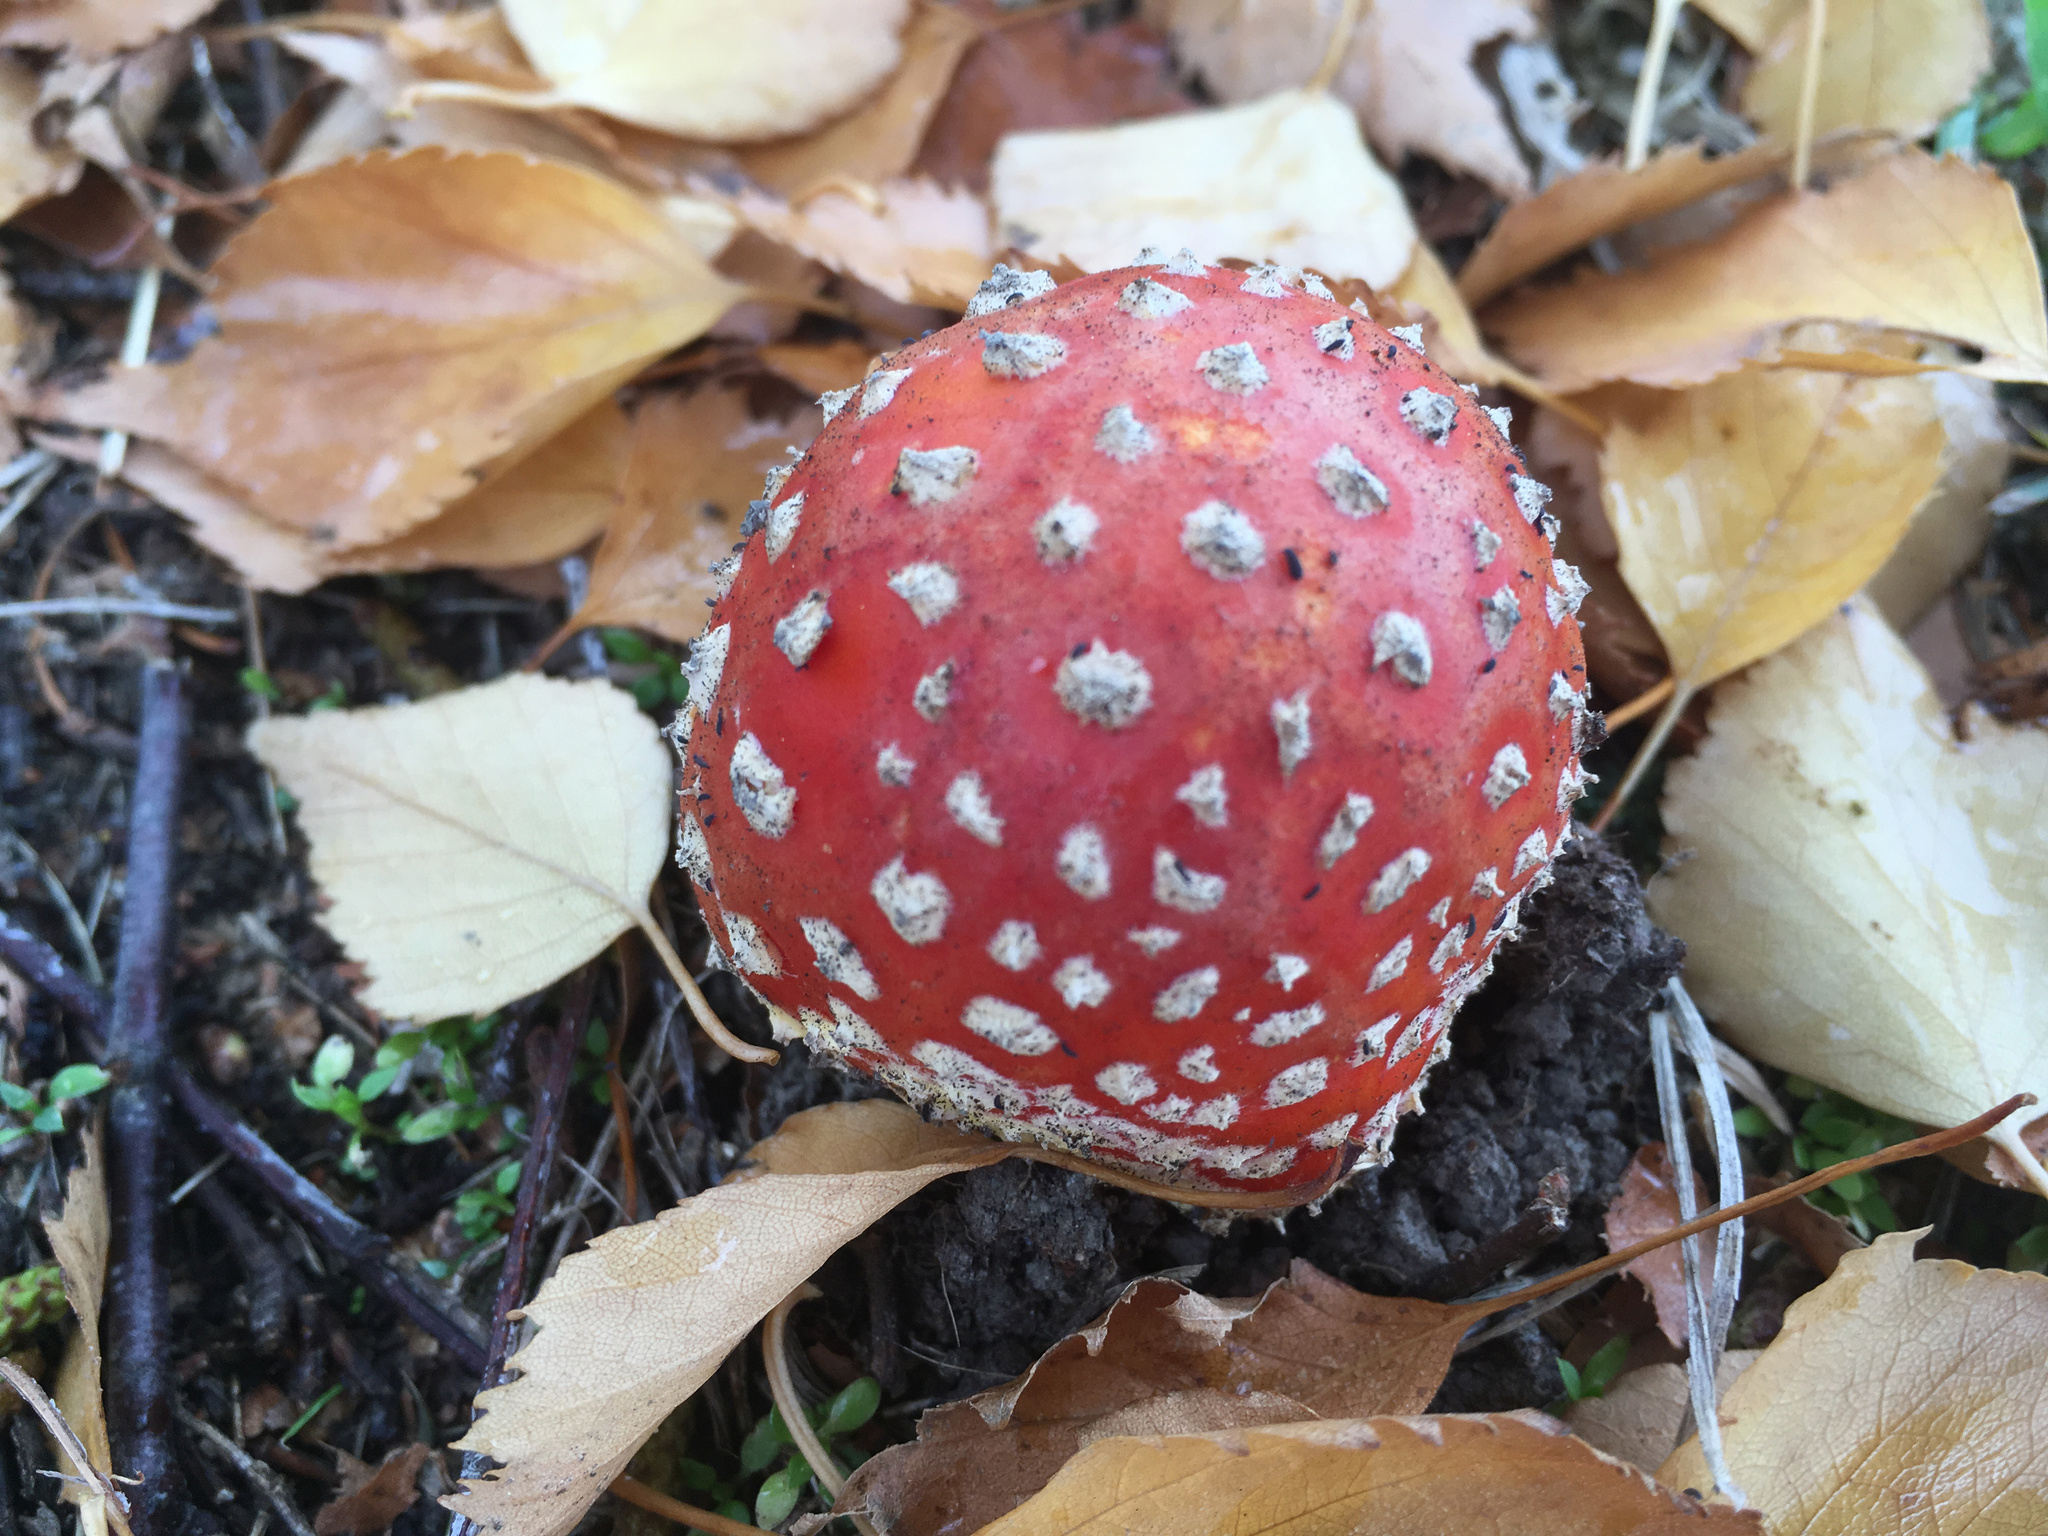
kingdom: Fungi
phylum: Basidiomycota
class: Agaricomycetes
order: Agaricales
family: Amanitaceae
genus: Amanita
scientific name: Amanita muscaria
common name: Fly agaric
